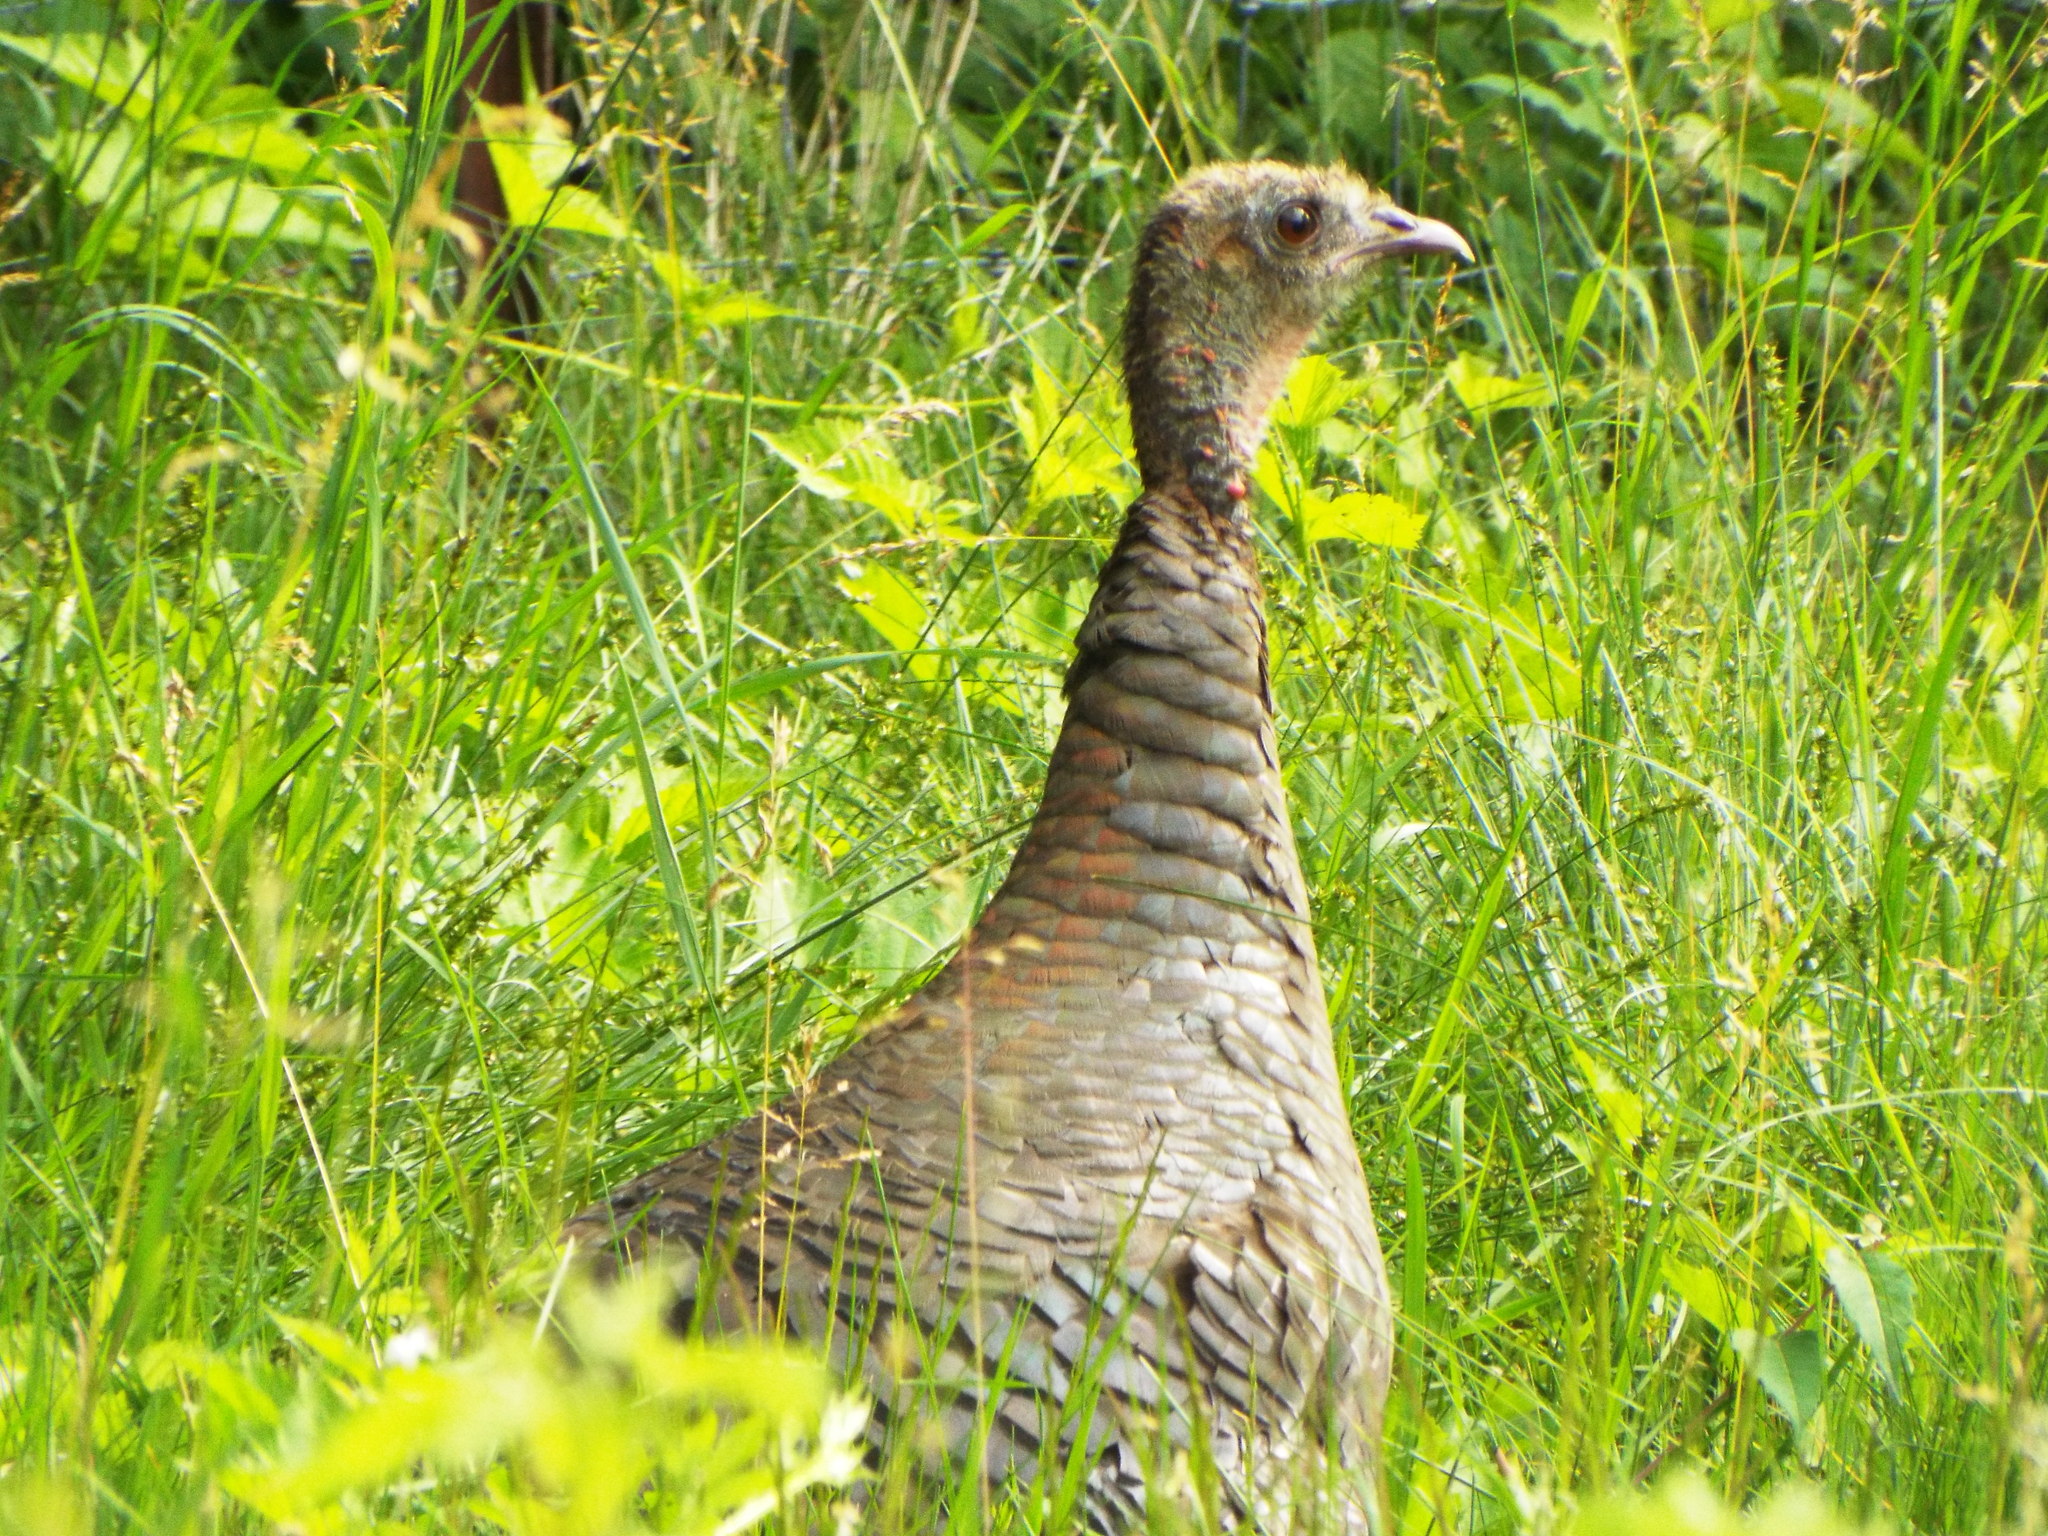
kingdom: Animalia
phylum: Chordata
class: Aves
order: Galliformes
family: Phasianidae
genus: Meleagris
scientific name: Meleagris gallopavo
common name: Wild turkey
